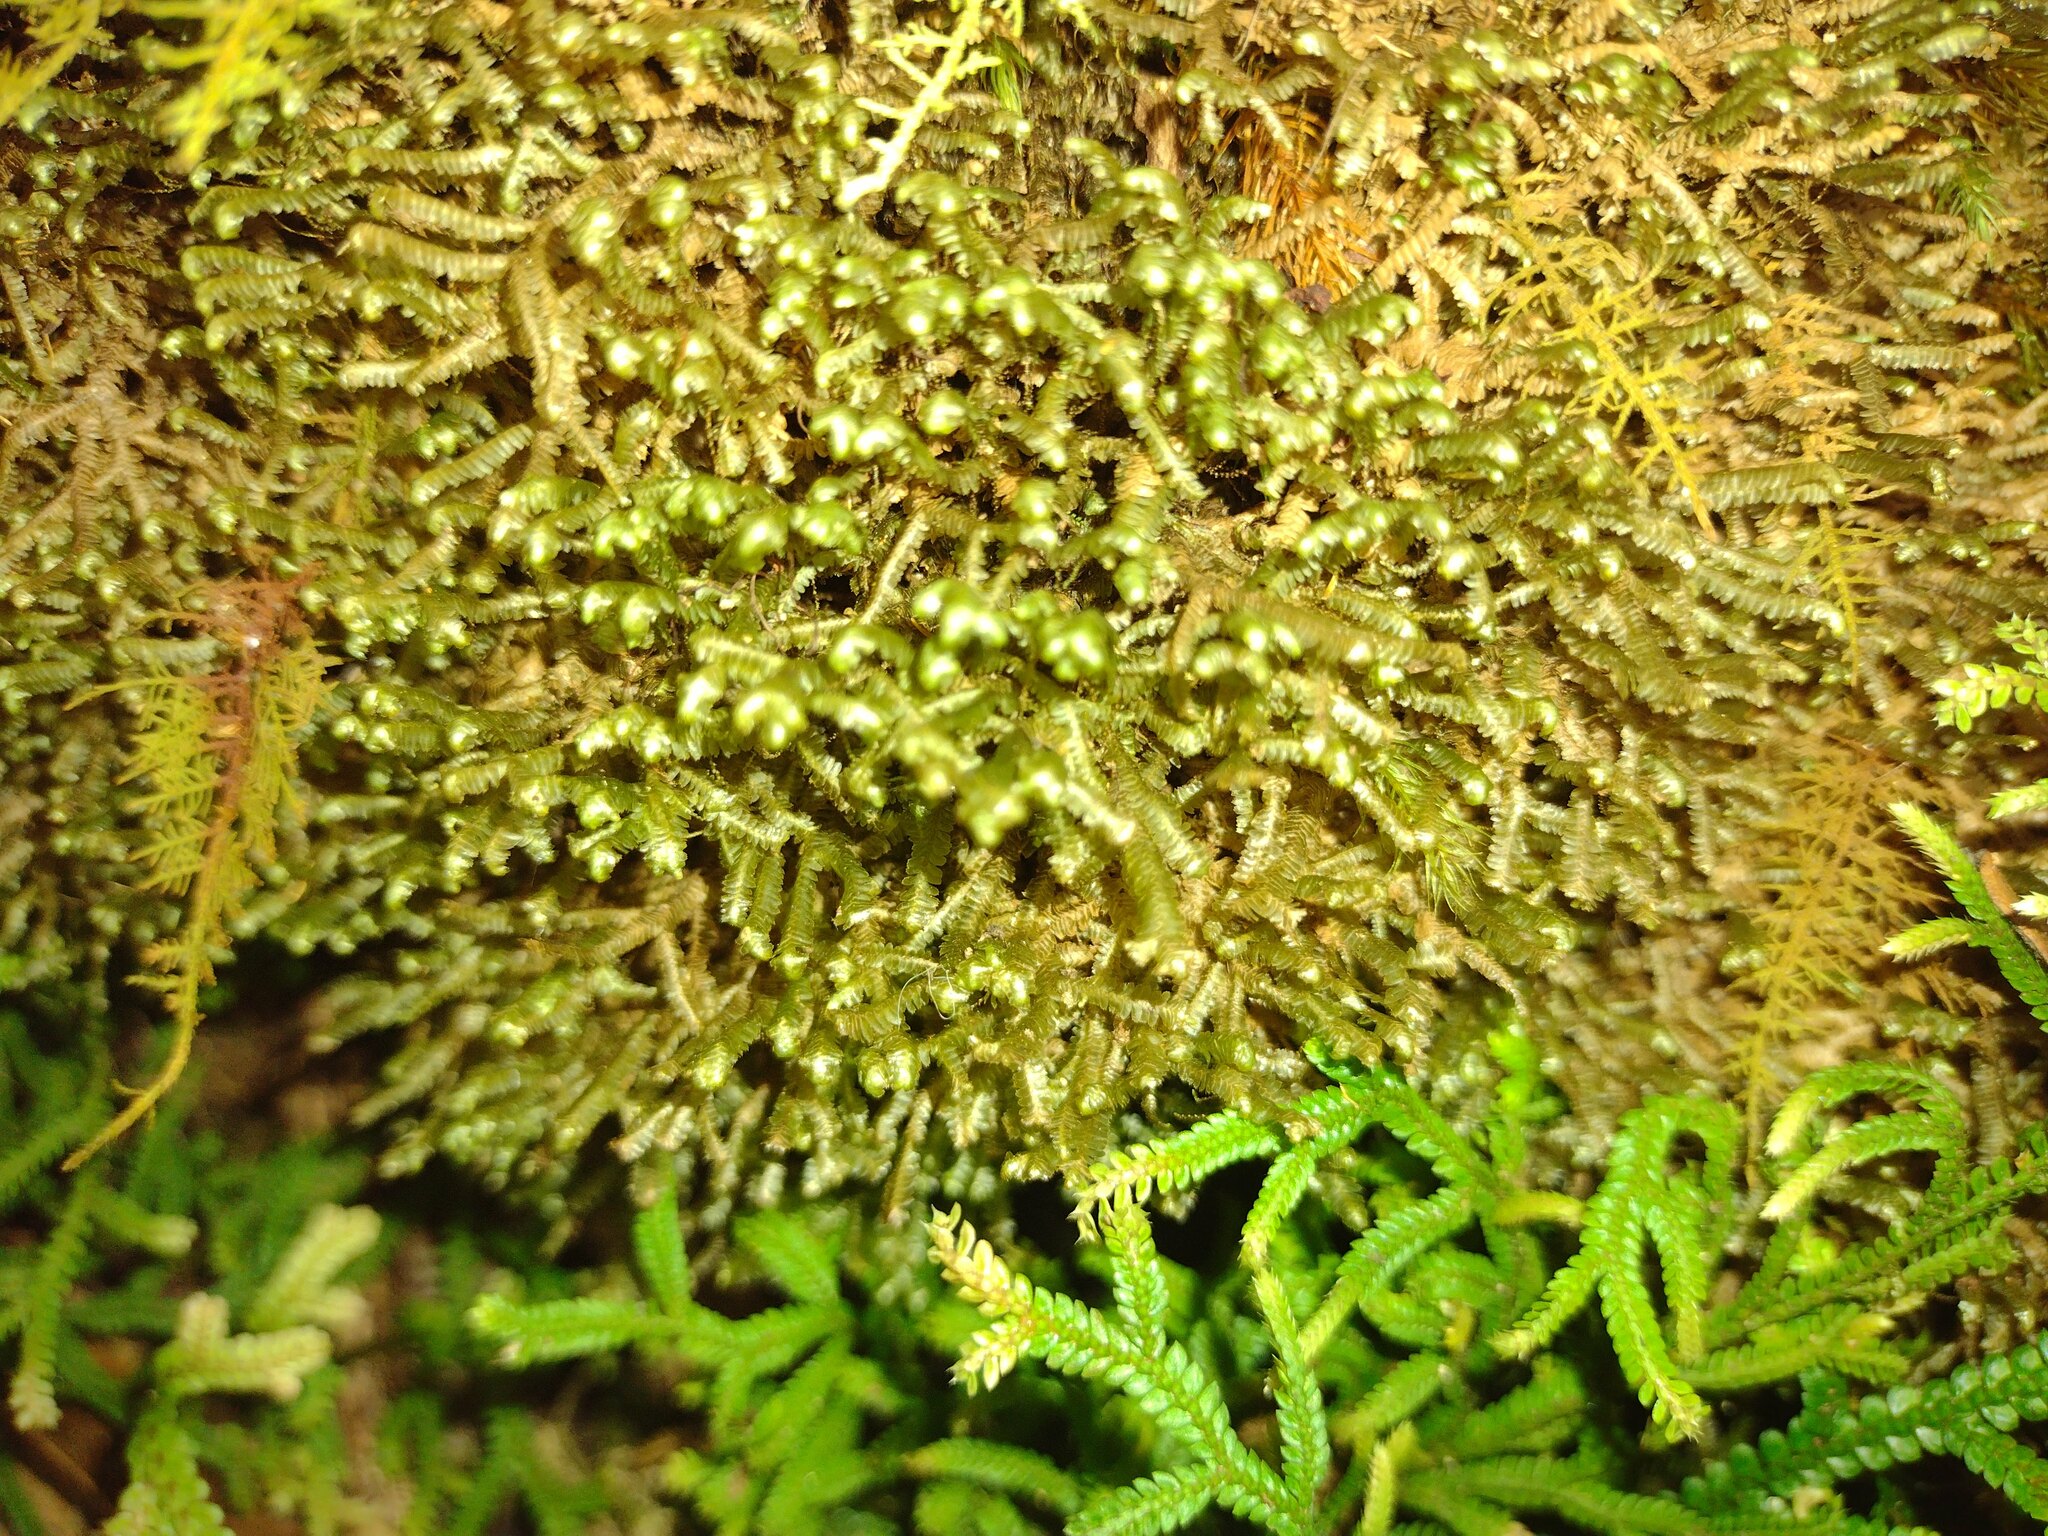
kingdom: Plantae
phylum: Marchantiophyta
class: Jungermanniopsida
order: Jungermanniales
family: Lepidoziaceae
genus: Bazzania
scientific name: Bazzania praerupta
